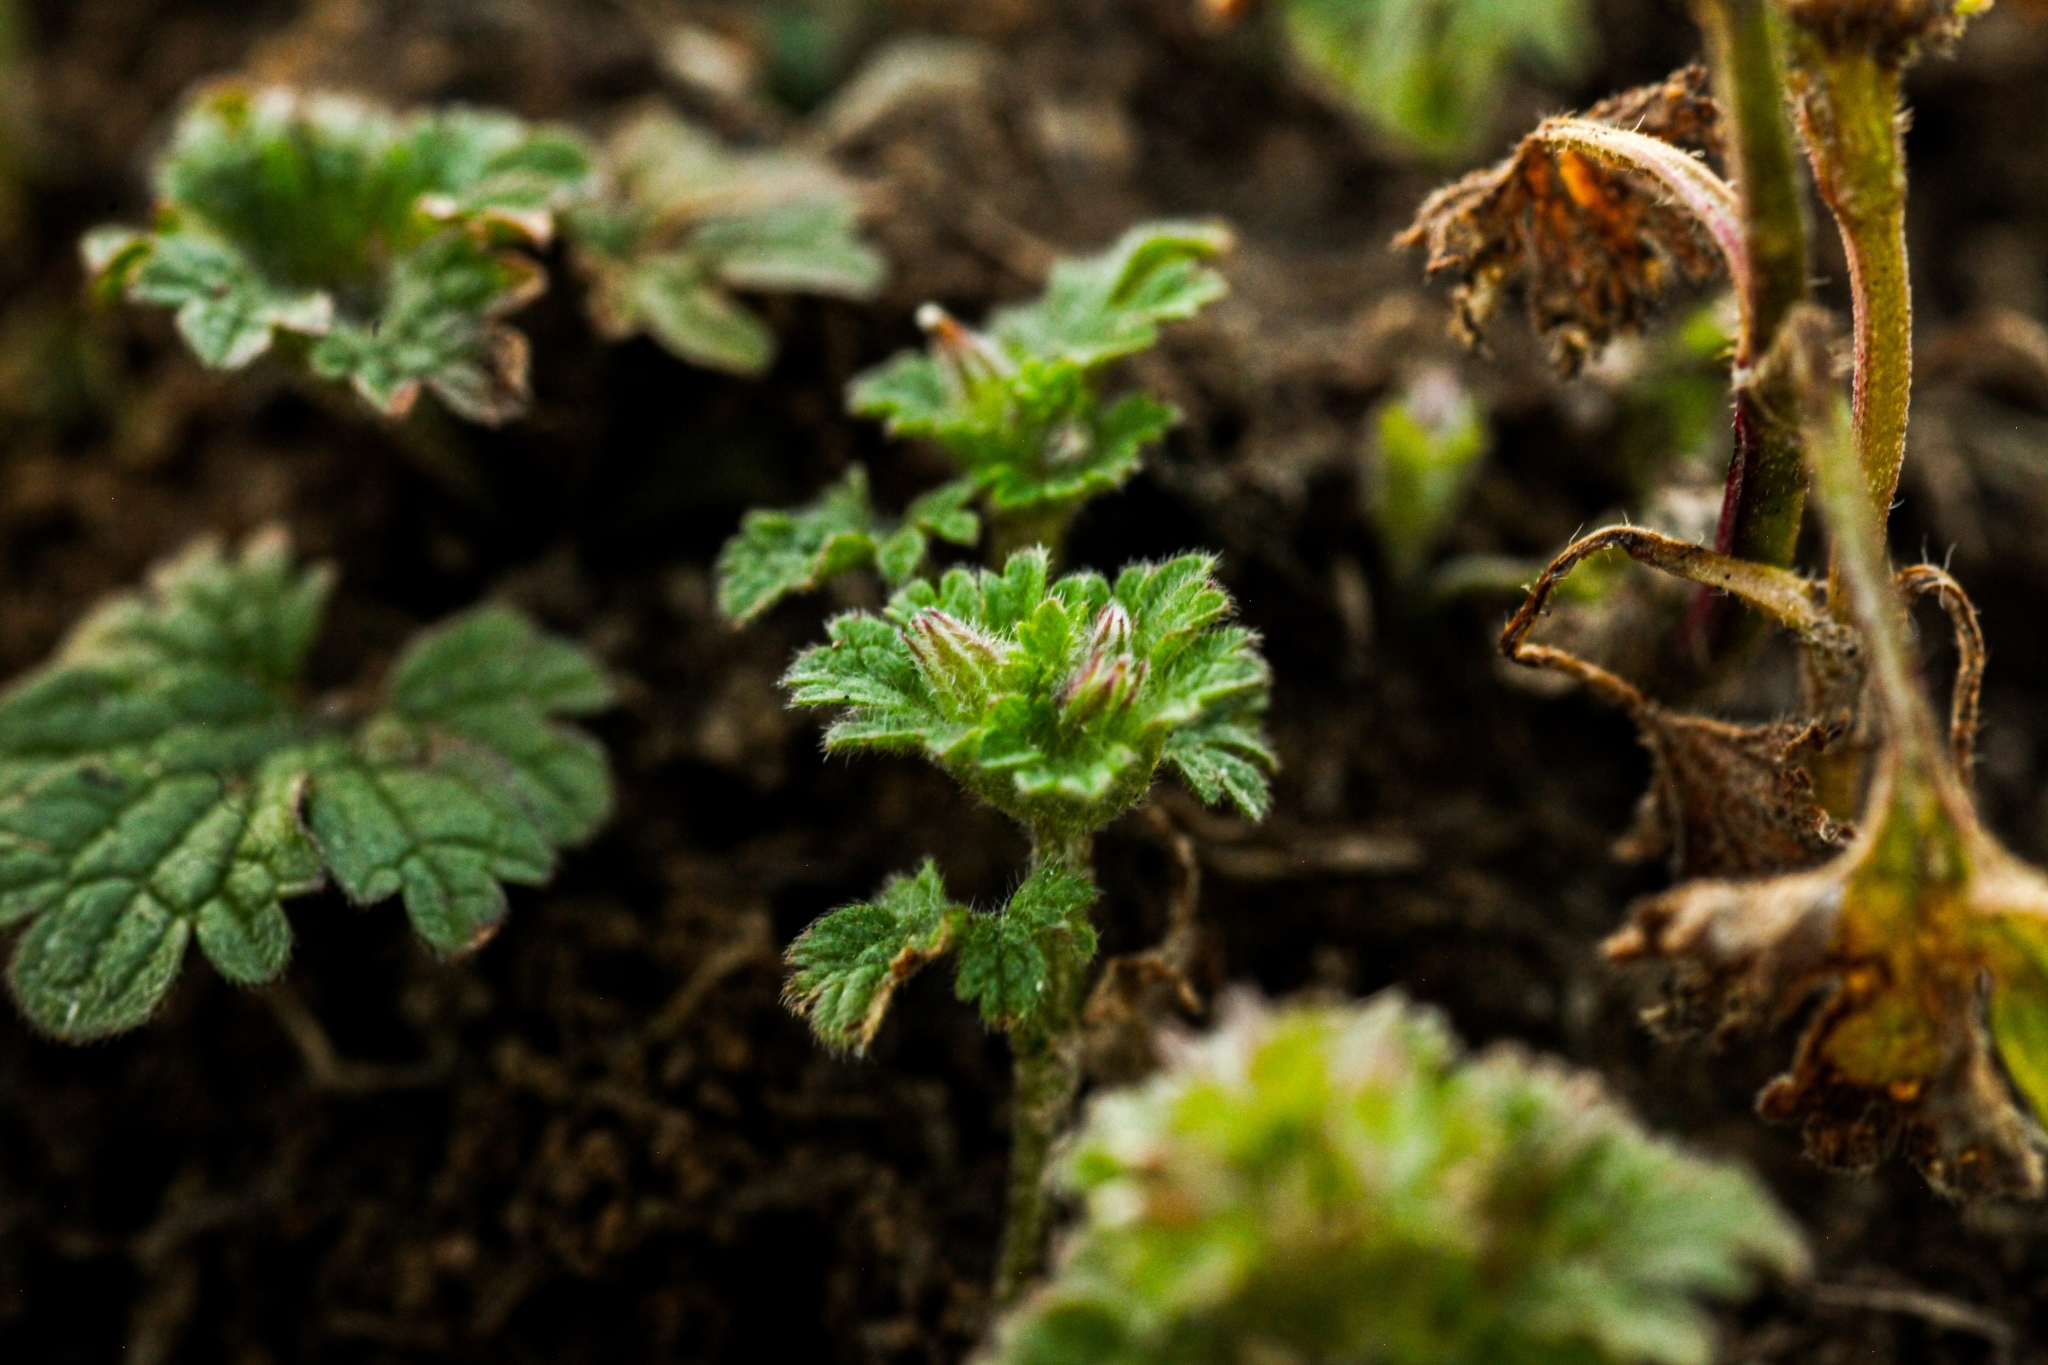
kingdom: Plantae
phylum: Tracheophyta
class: Magnoliopsida
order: Lamiales
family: Lamiaceae
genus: Lamium
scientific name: Lamium amplexicaule
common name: Henbit dead-nettle
